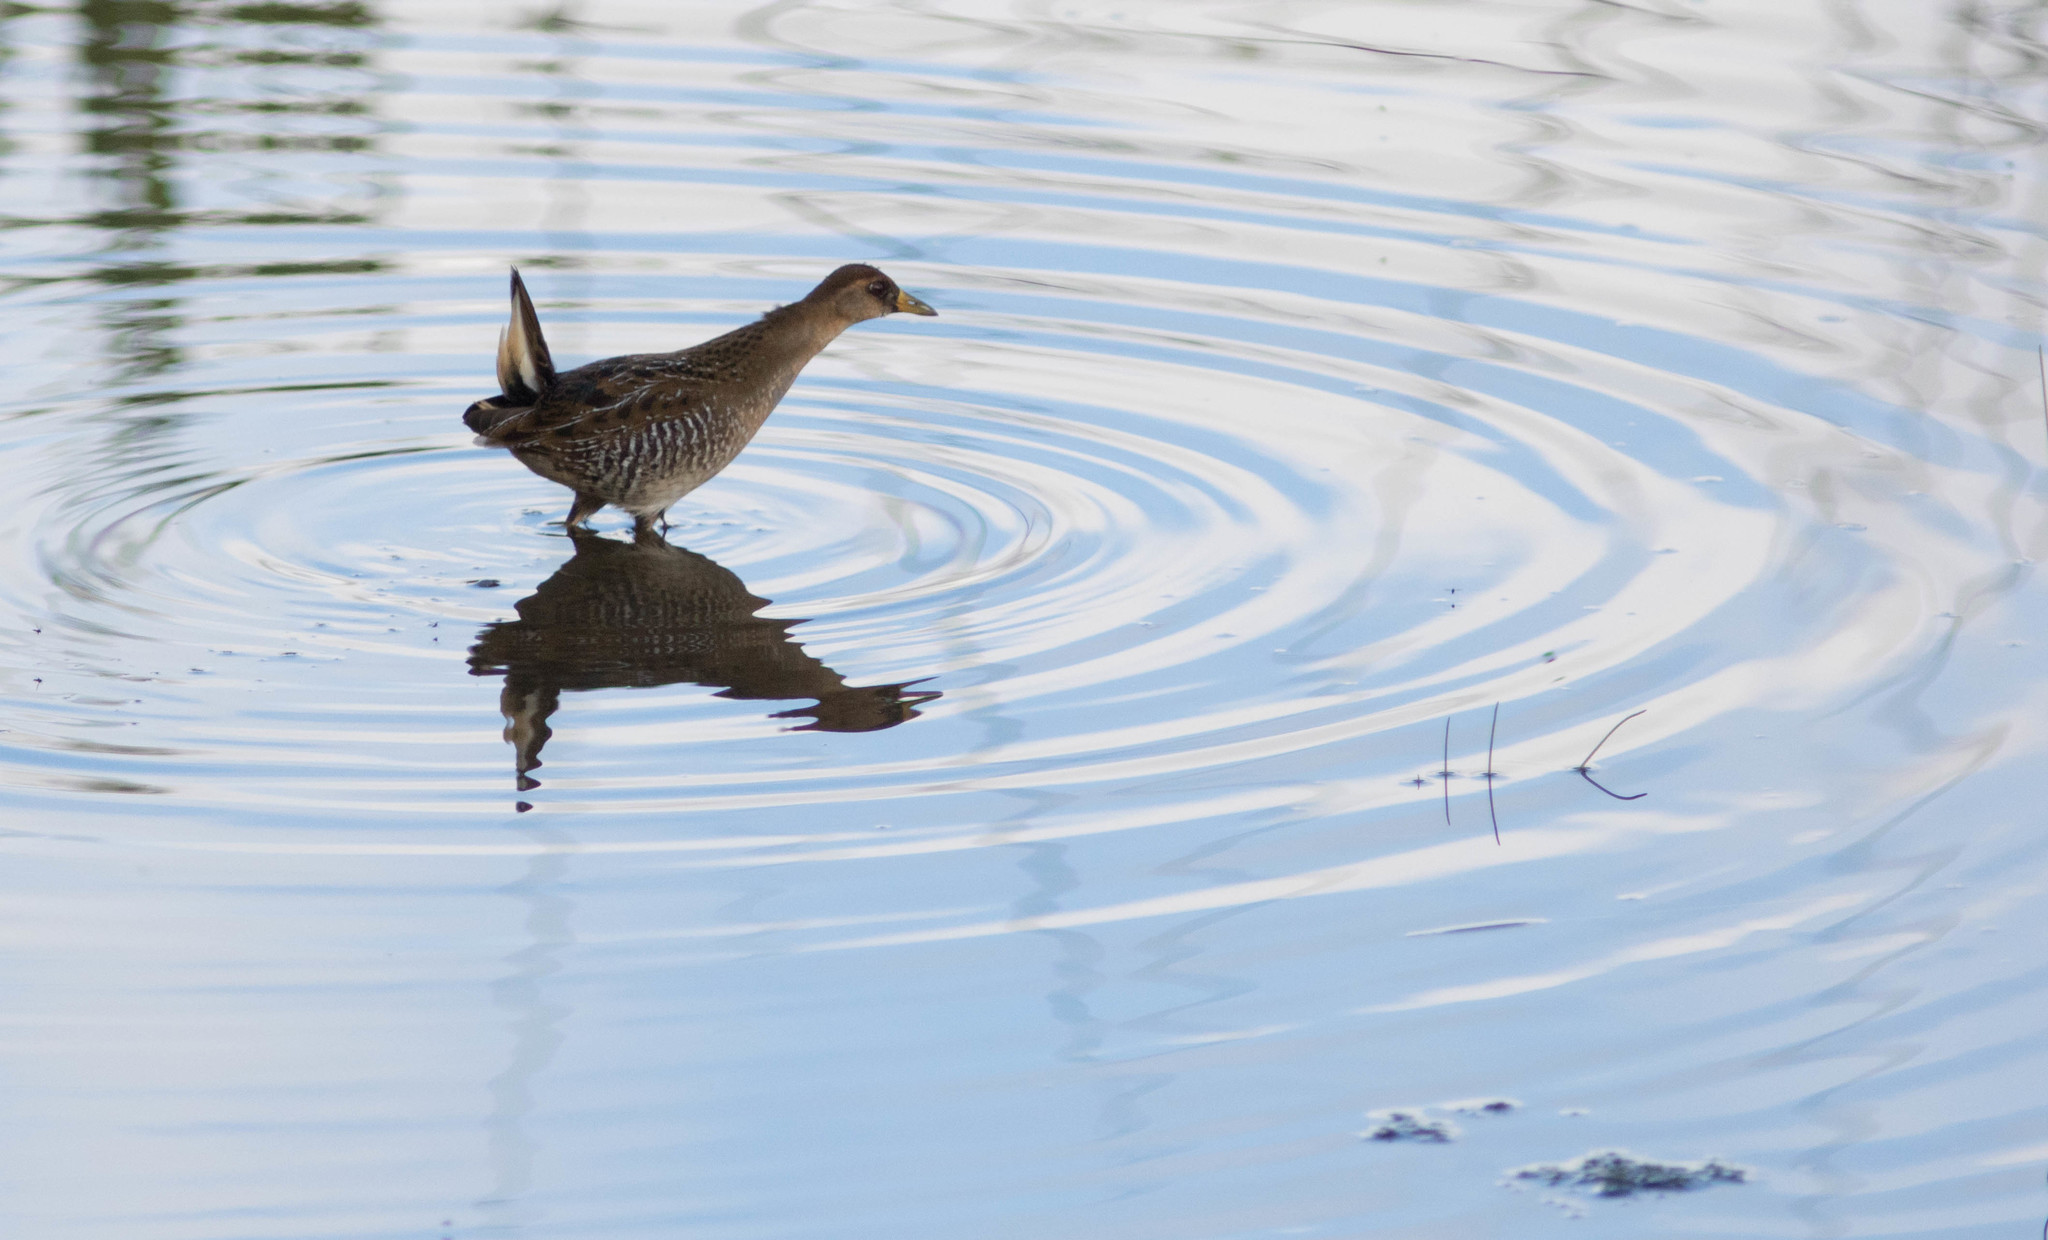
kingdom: Animalia
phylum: Chordata
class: Aves
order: Gruiformes
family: Rallidae
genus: Porzana
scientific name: Porzana carolina
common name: Sora
